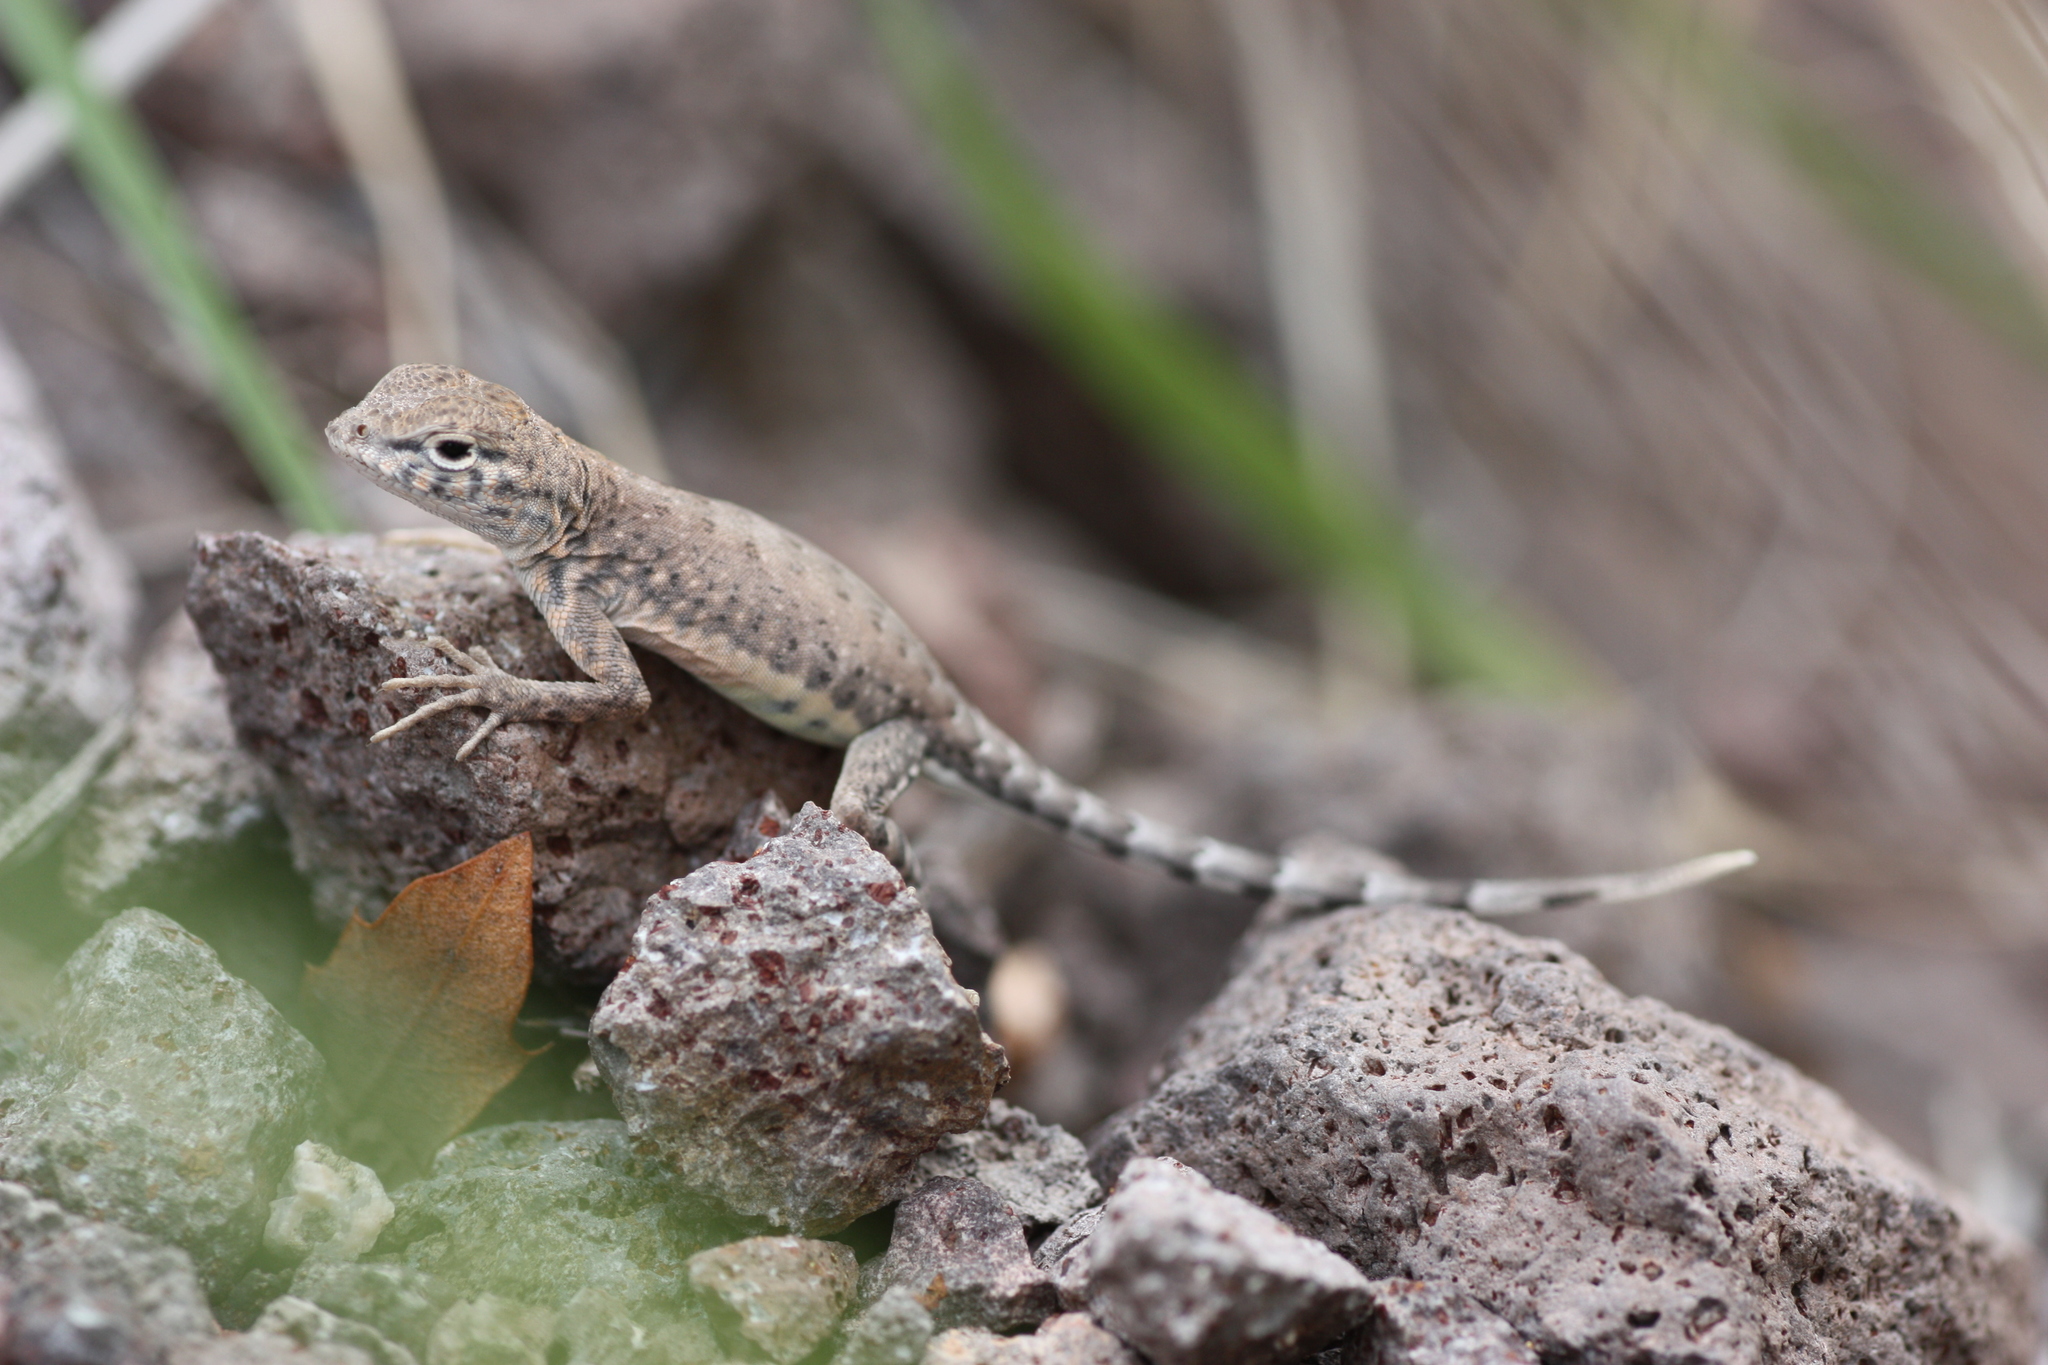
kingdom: Animalia
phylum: Chordata
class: Squamata
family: Phrynosomatidae
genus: Cophosaurus
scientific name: Cophosaurus texanus
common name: Greater earless lizard
